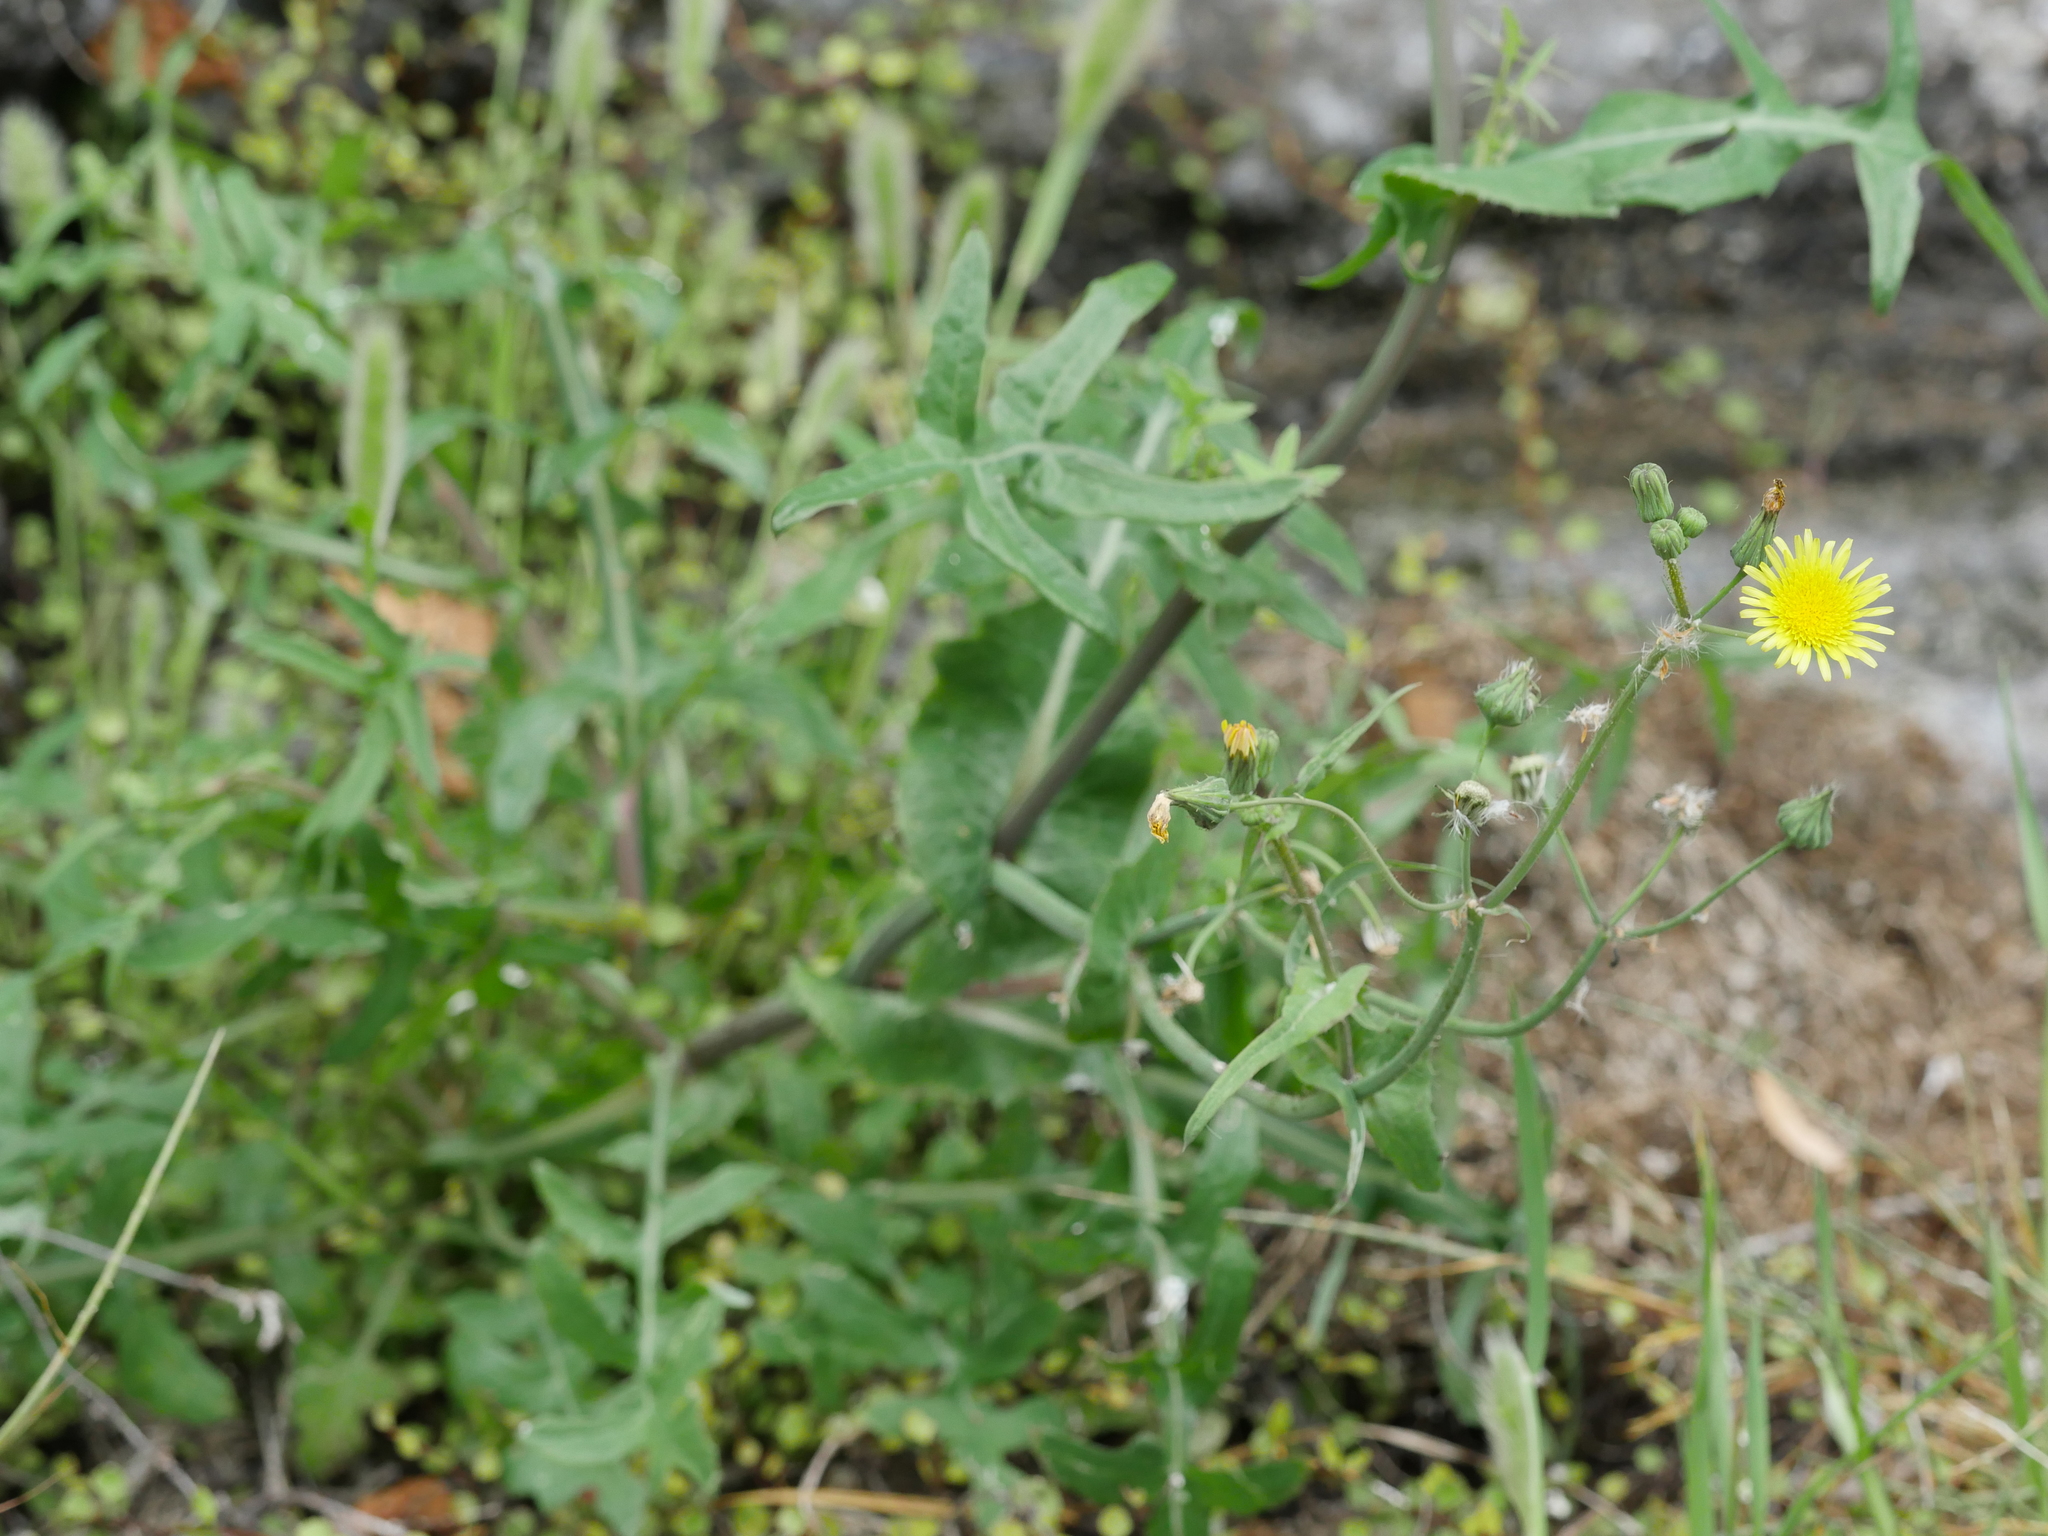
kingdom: Plantae
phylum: Tracheophyta
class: Magnoliopsida
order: Asterales
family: Asteraceae
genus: Sonchus
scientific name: Sonchus oleraceus
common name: Common sowthistle
